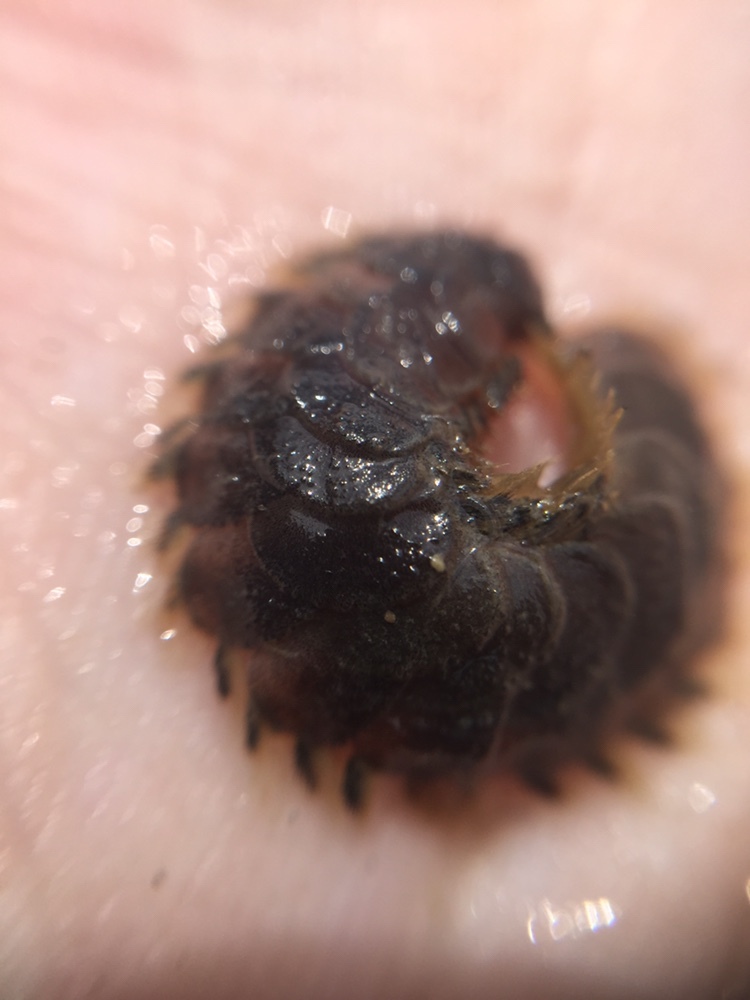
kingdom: Animalia
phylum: Annelida
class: Polychaeta
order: Phyllodocida
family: Polynoidae
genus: Paralepidonotus
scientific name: Paralepidonotus ampulliferus
